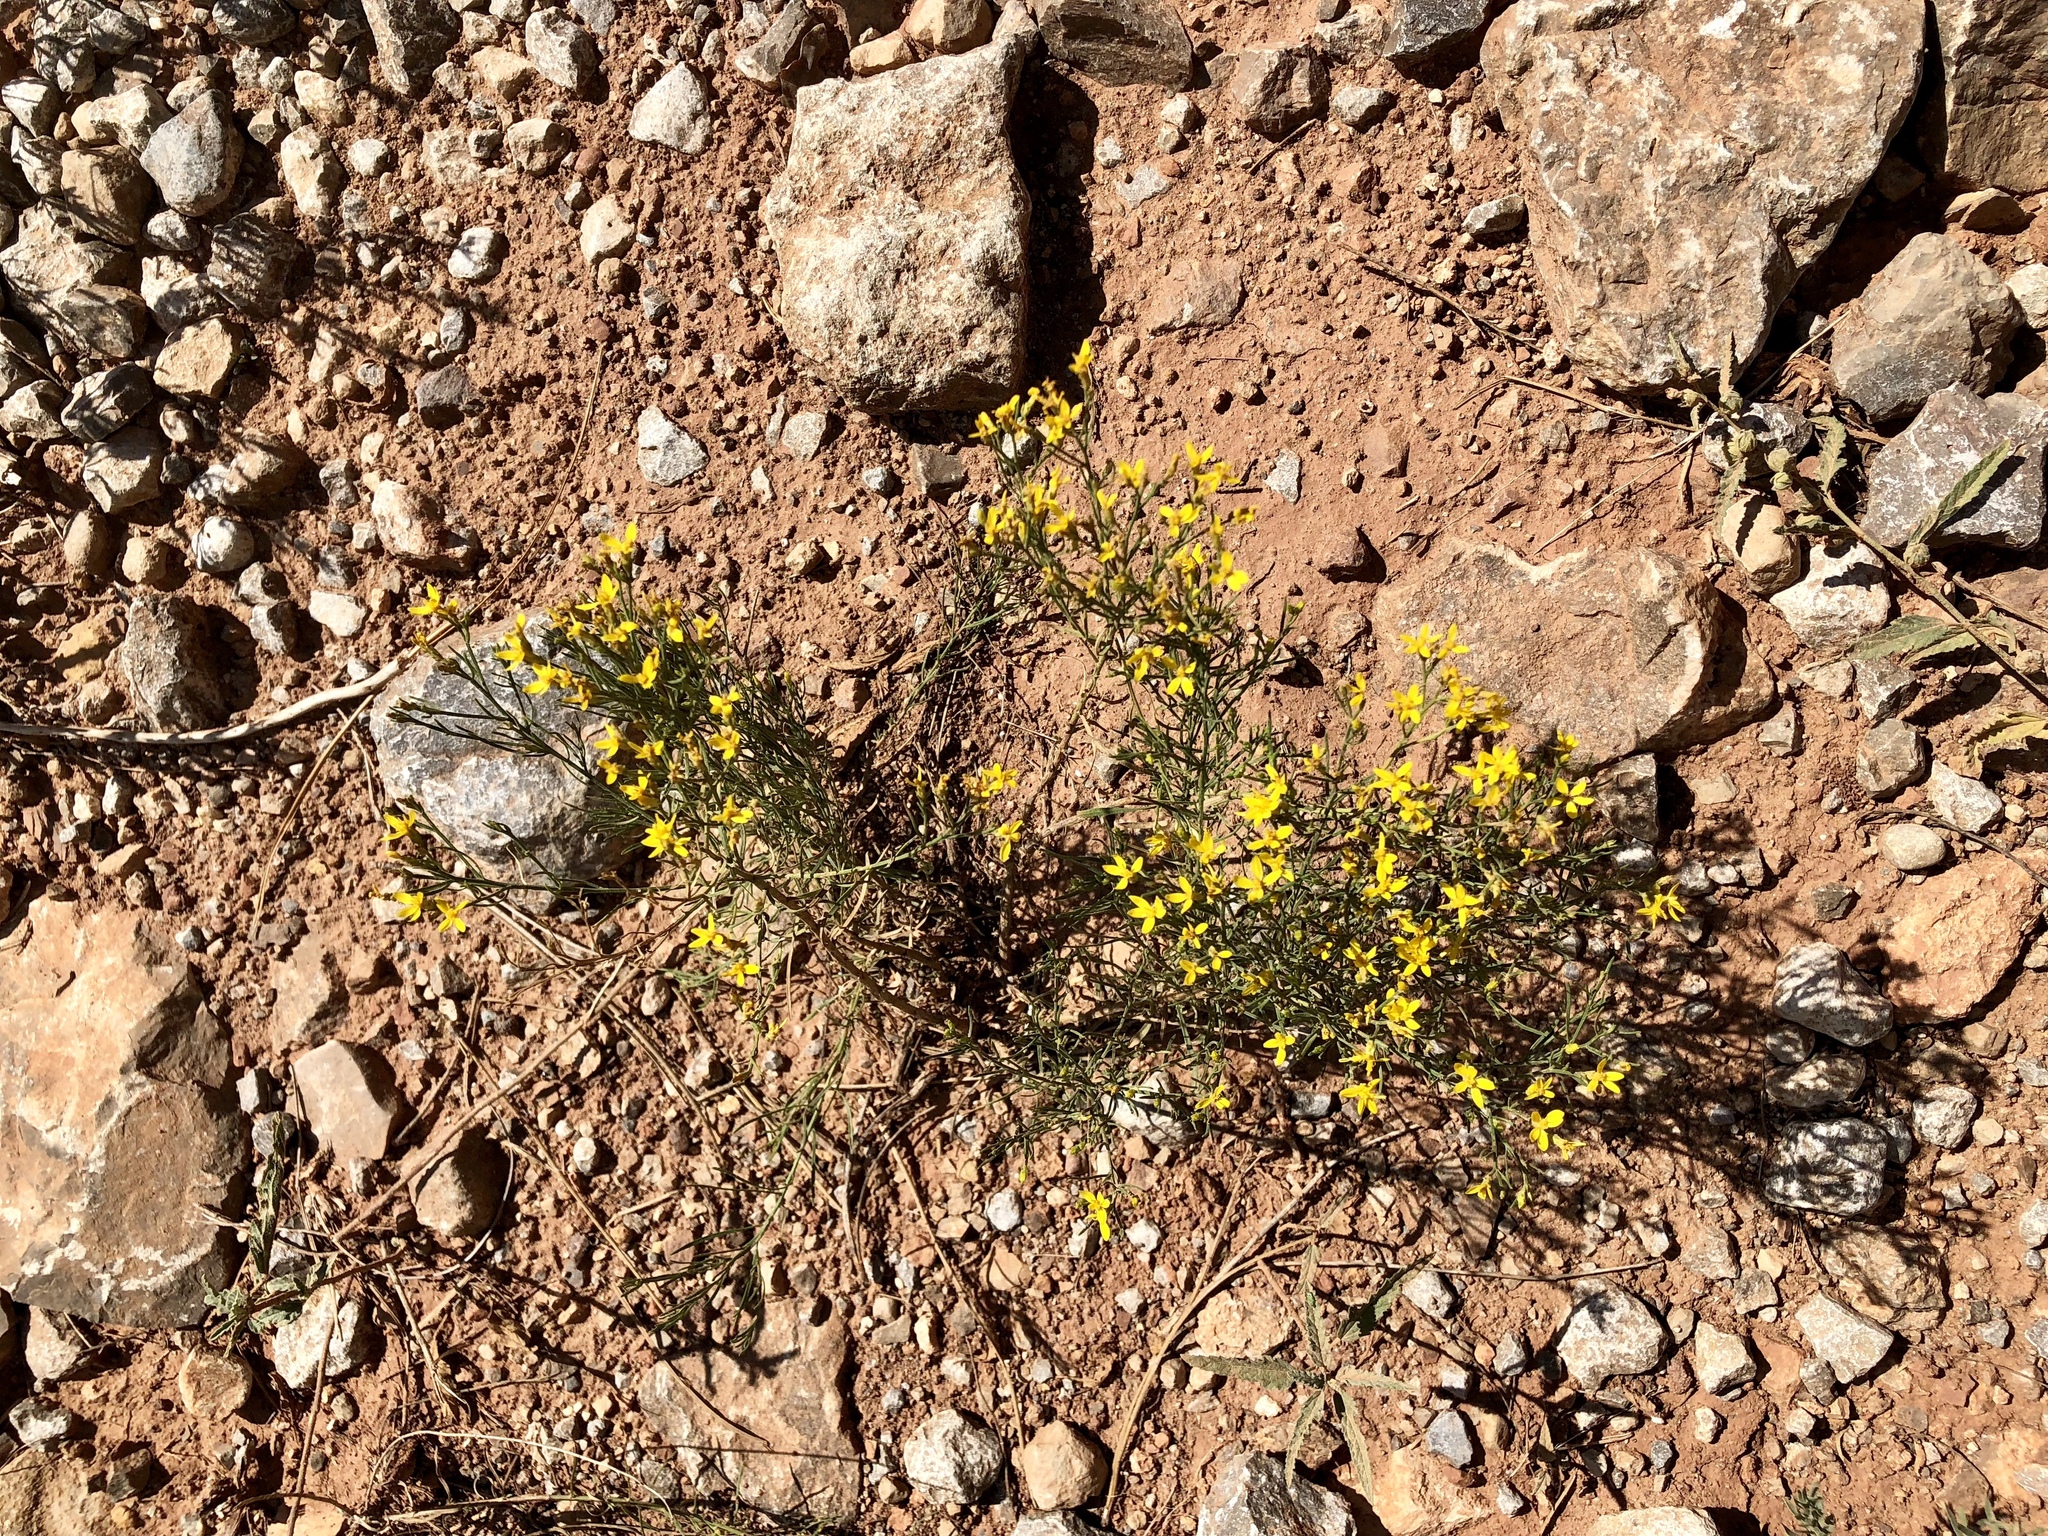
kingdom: Plantae
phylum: Tracheophyta
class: Magnoliopsida
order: Asterales
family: Asteraceae
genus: Gutierrezia
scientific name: Gutierrezia sarothrae
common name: Broom snakeweed
